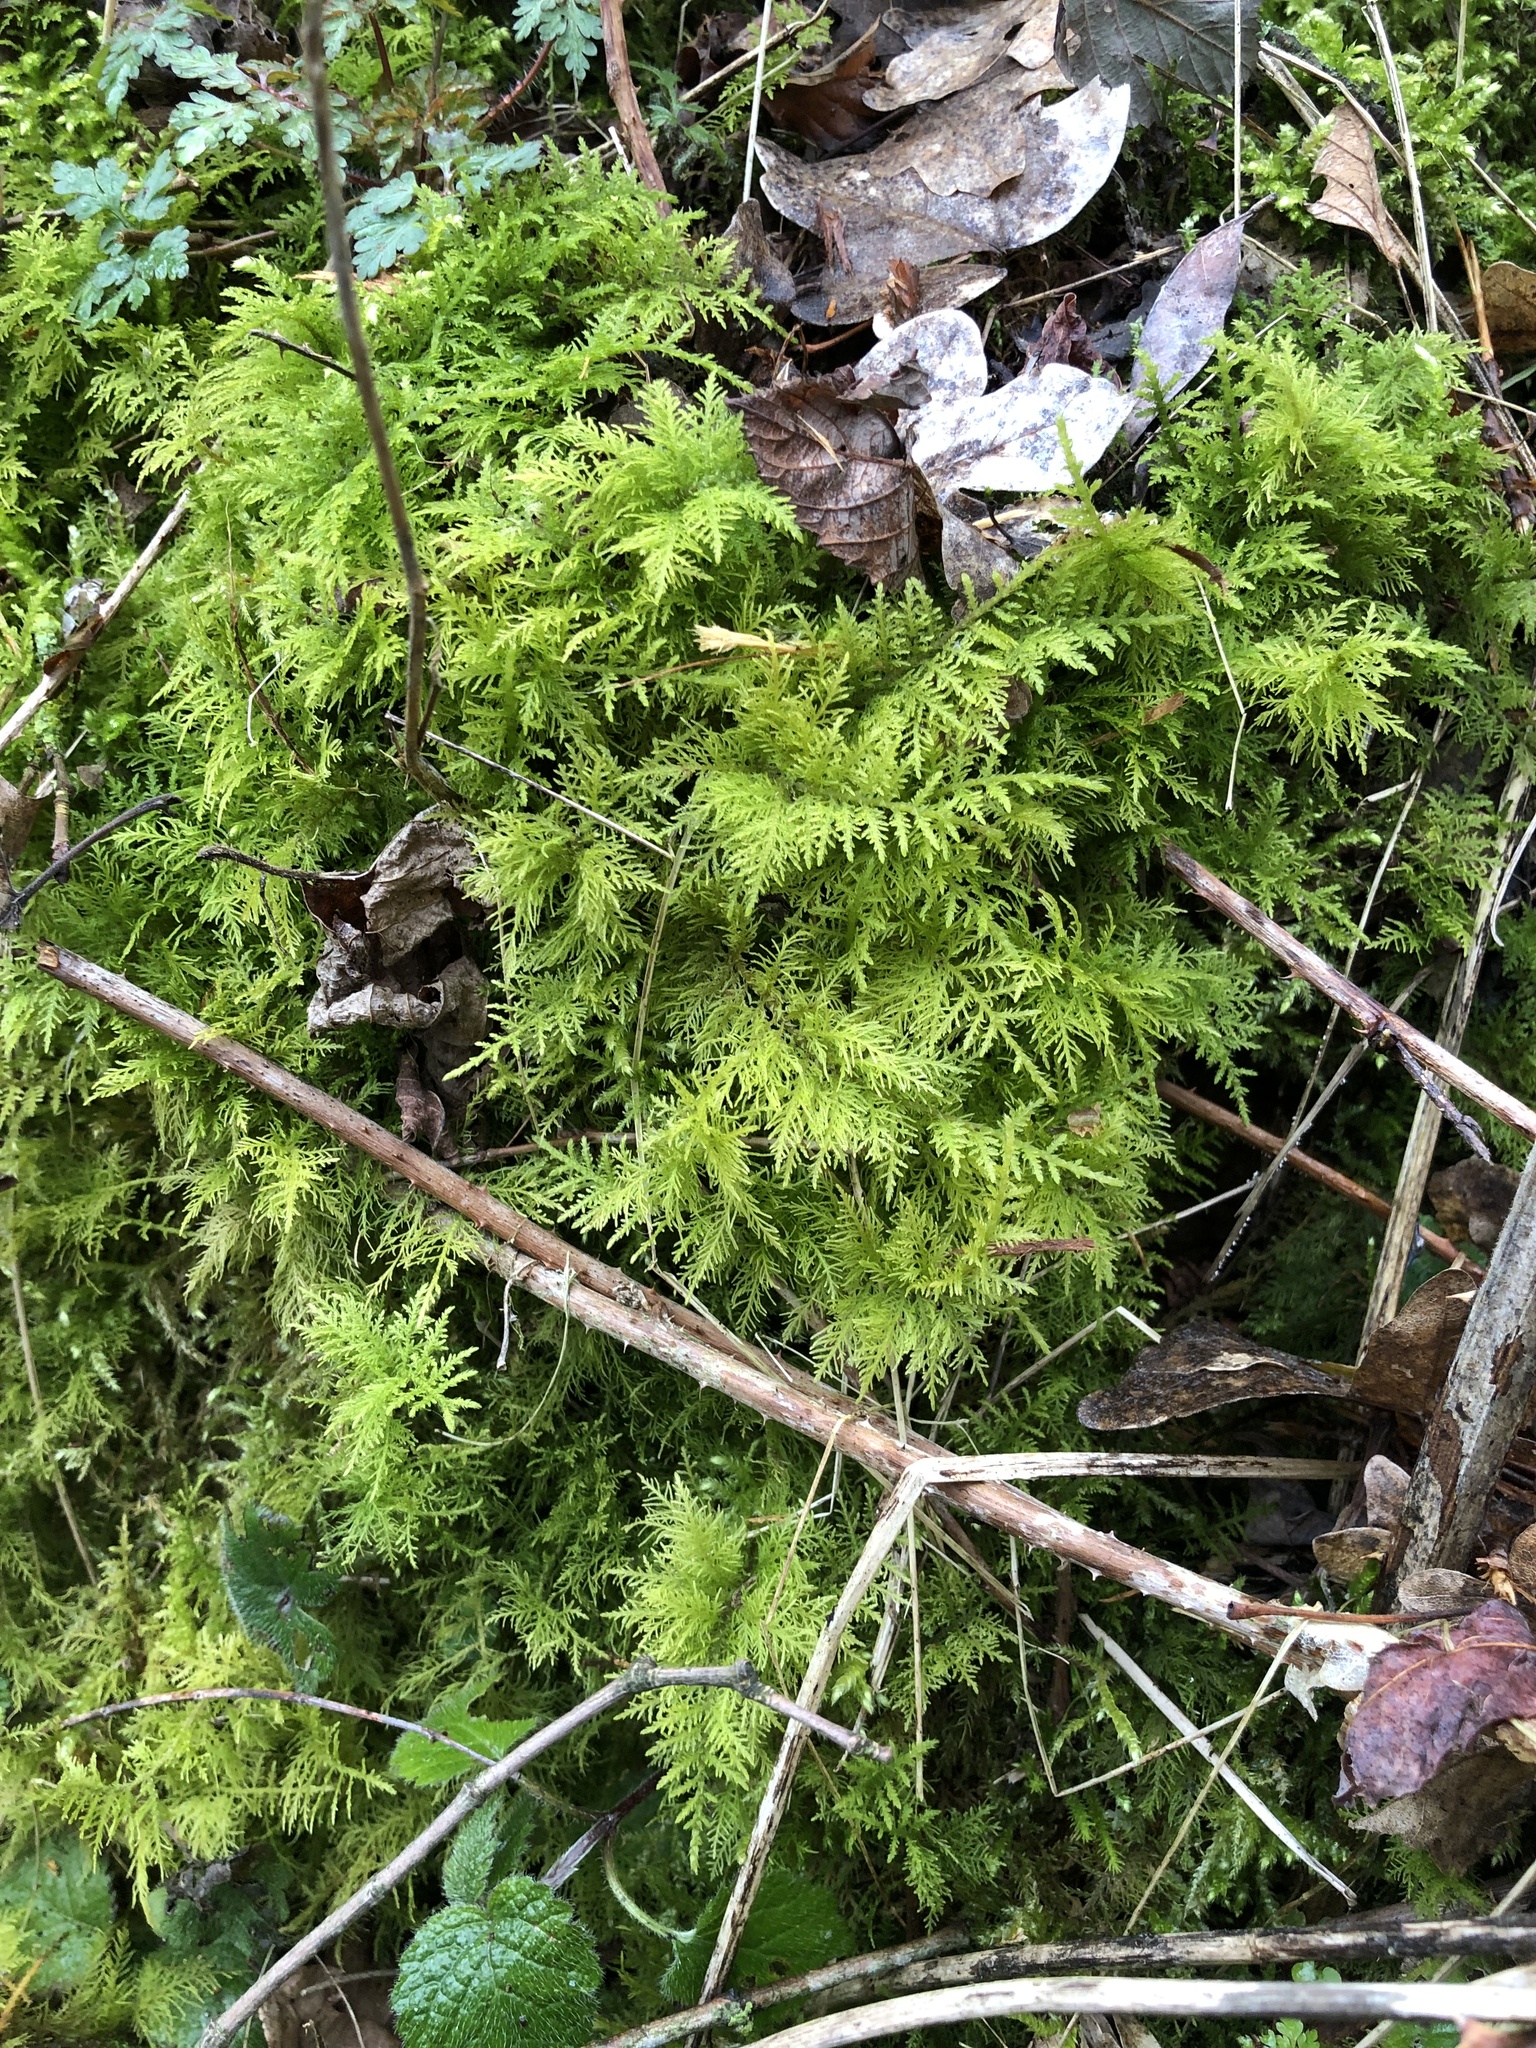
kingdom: Plantae
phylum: Bryophyta
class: Bryopsida
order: Hypnales
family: Thuidiaceae
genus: Thuidium
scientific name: Thuidium tamariscinum
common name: Common tamarisk-moss
